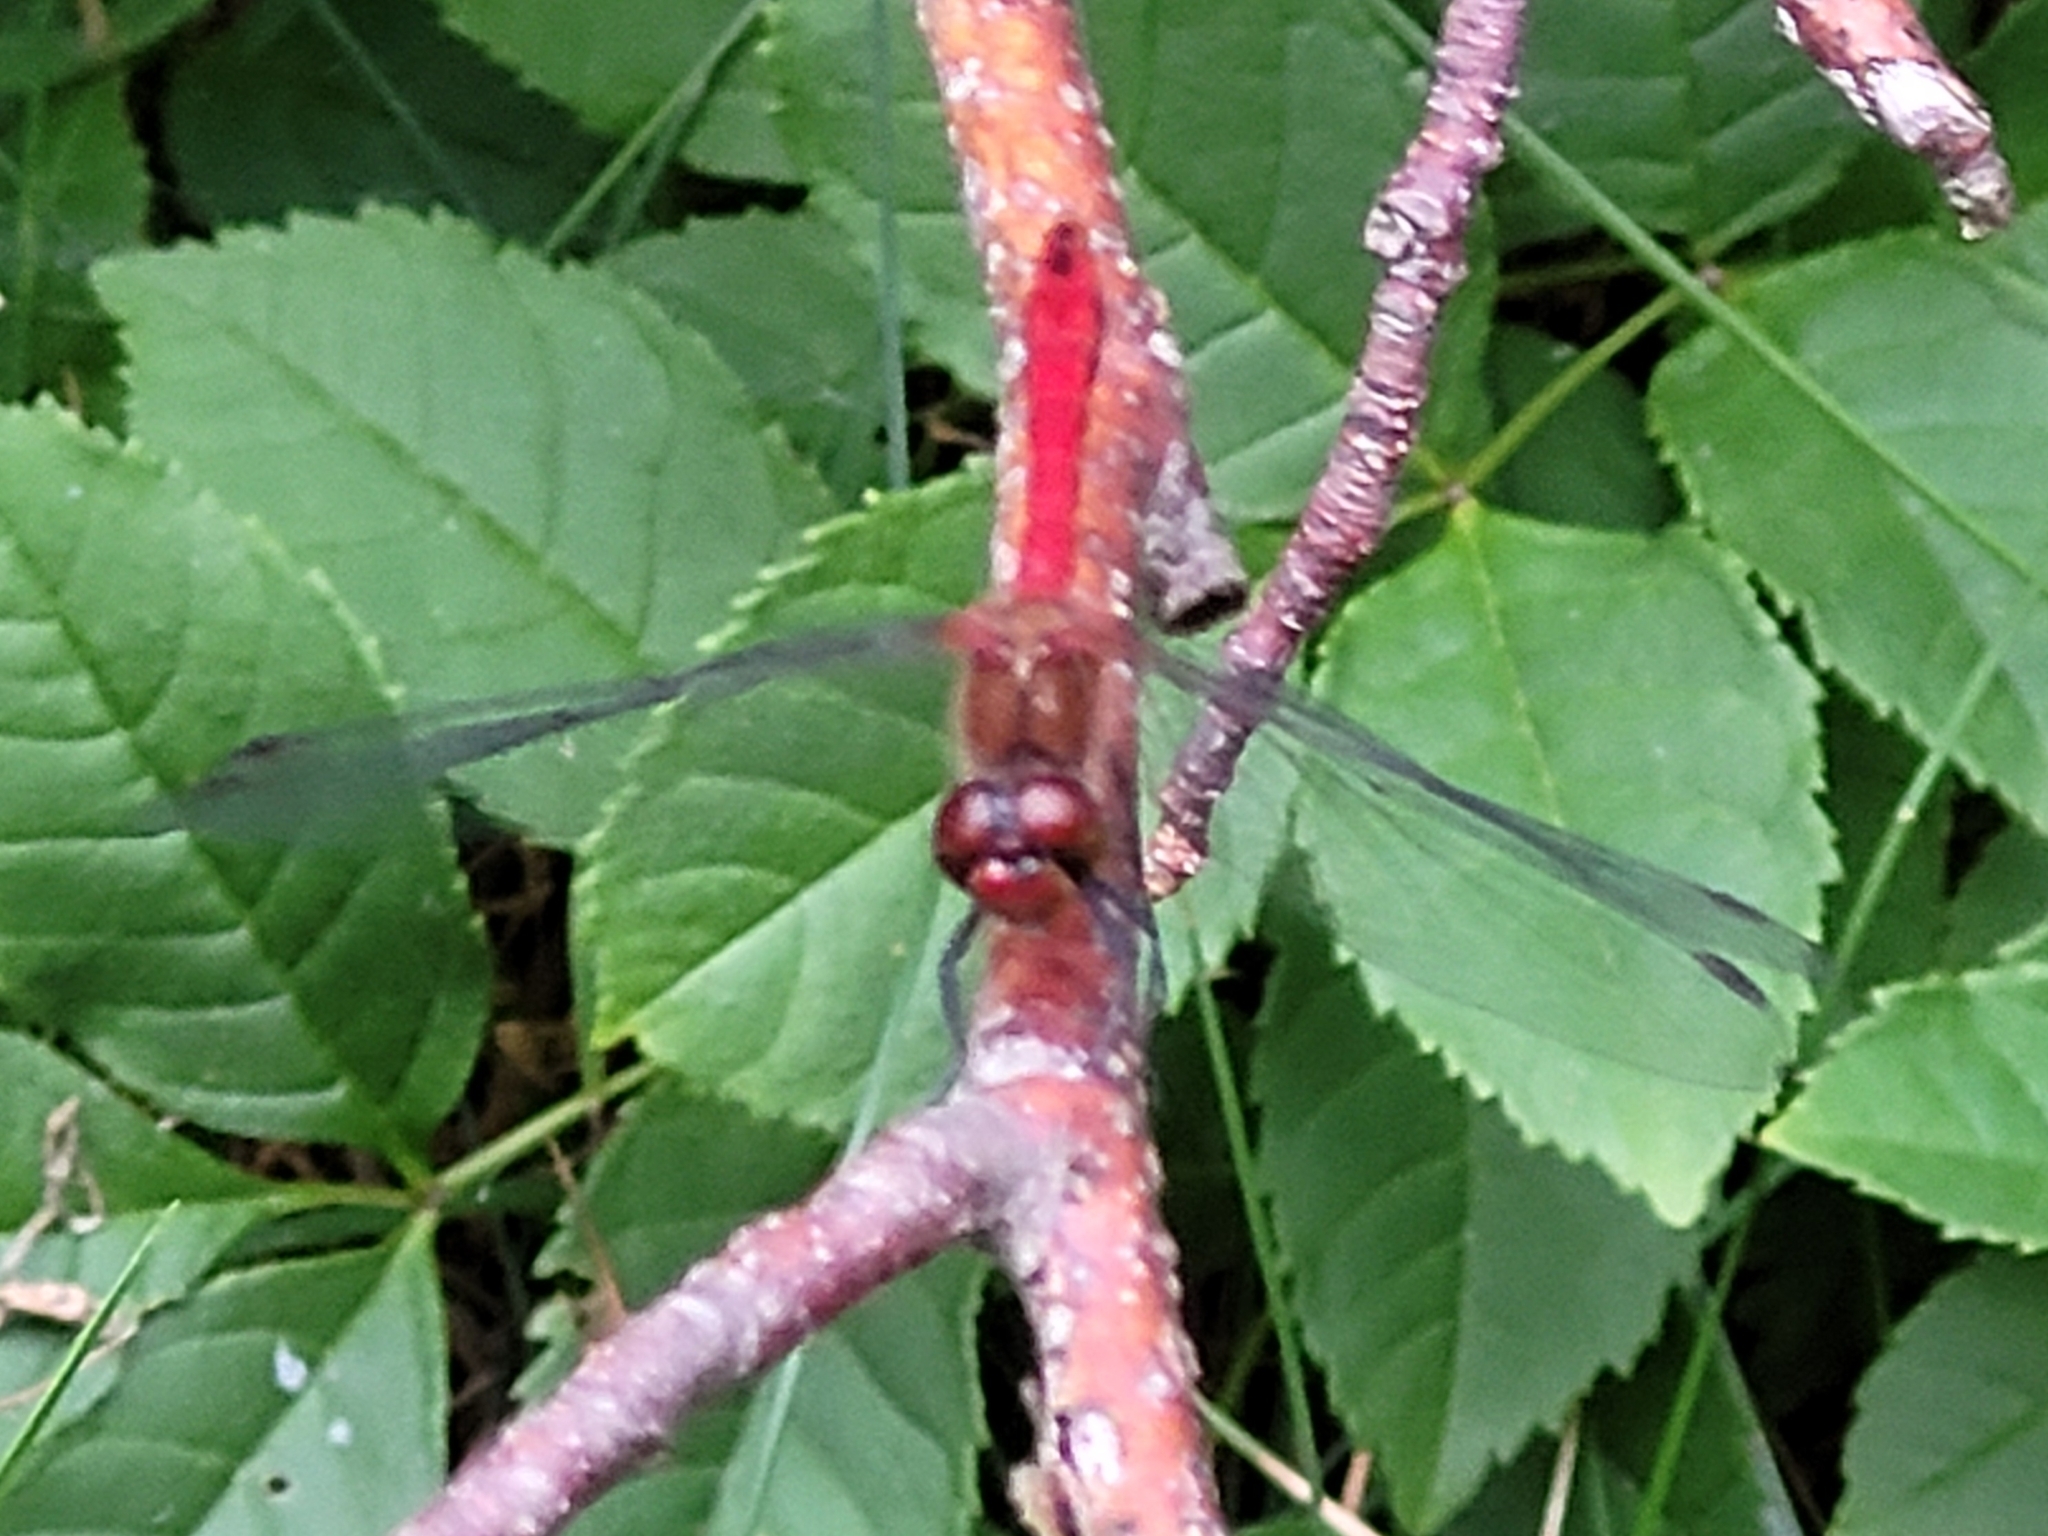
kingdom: Animalia
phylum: Arthropoda
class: Insecta
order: Odonata
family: Libellulidae
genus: Sympetrum
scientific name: Sympetrum sanguineum
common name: Ruddy darter
